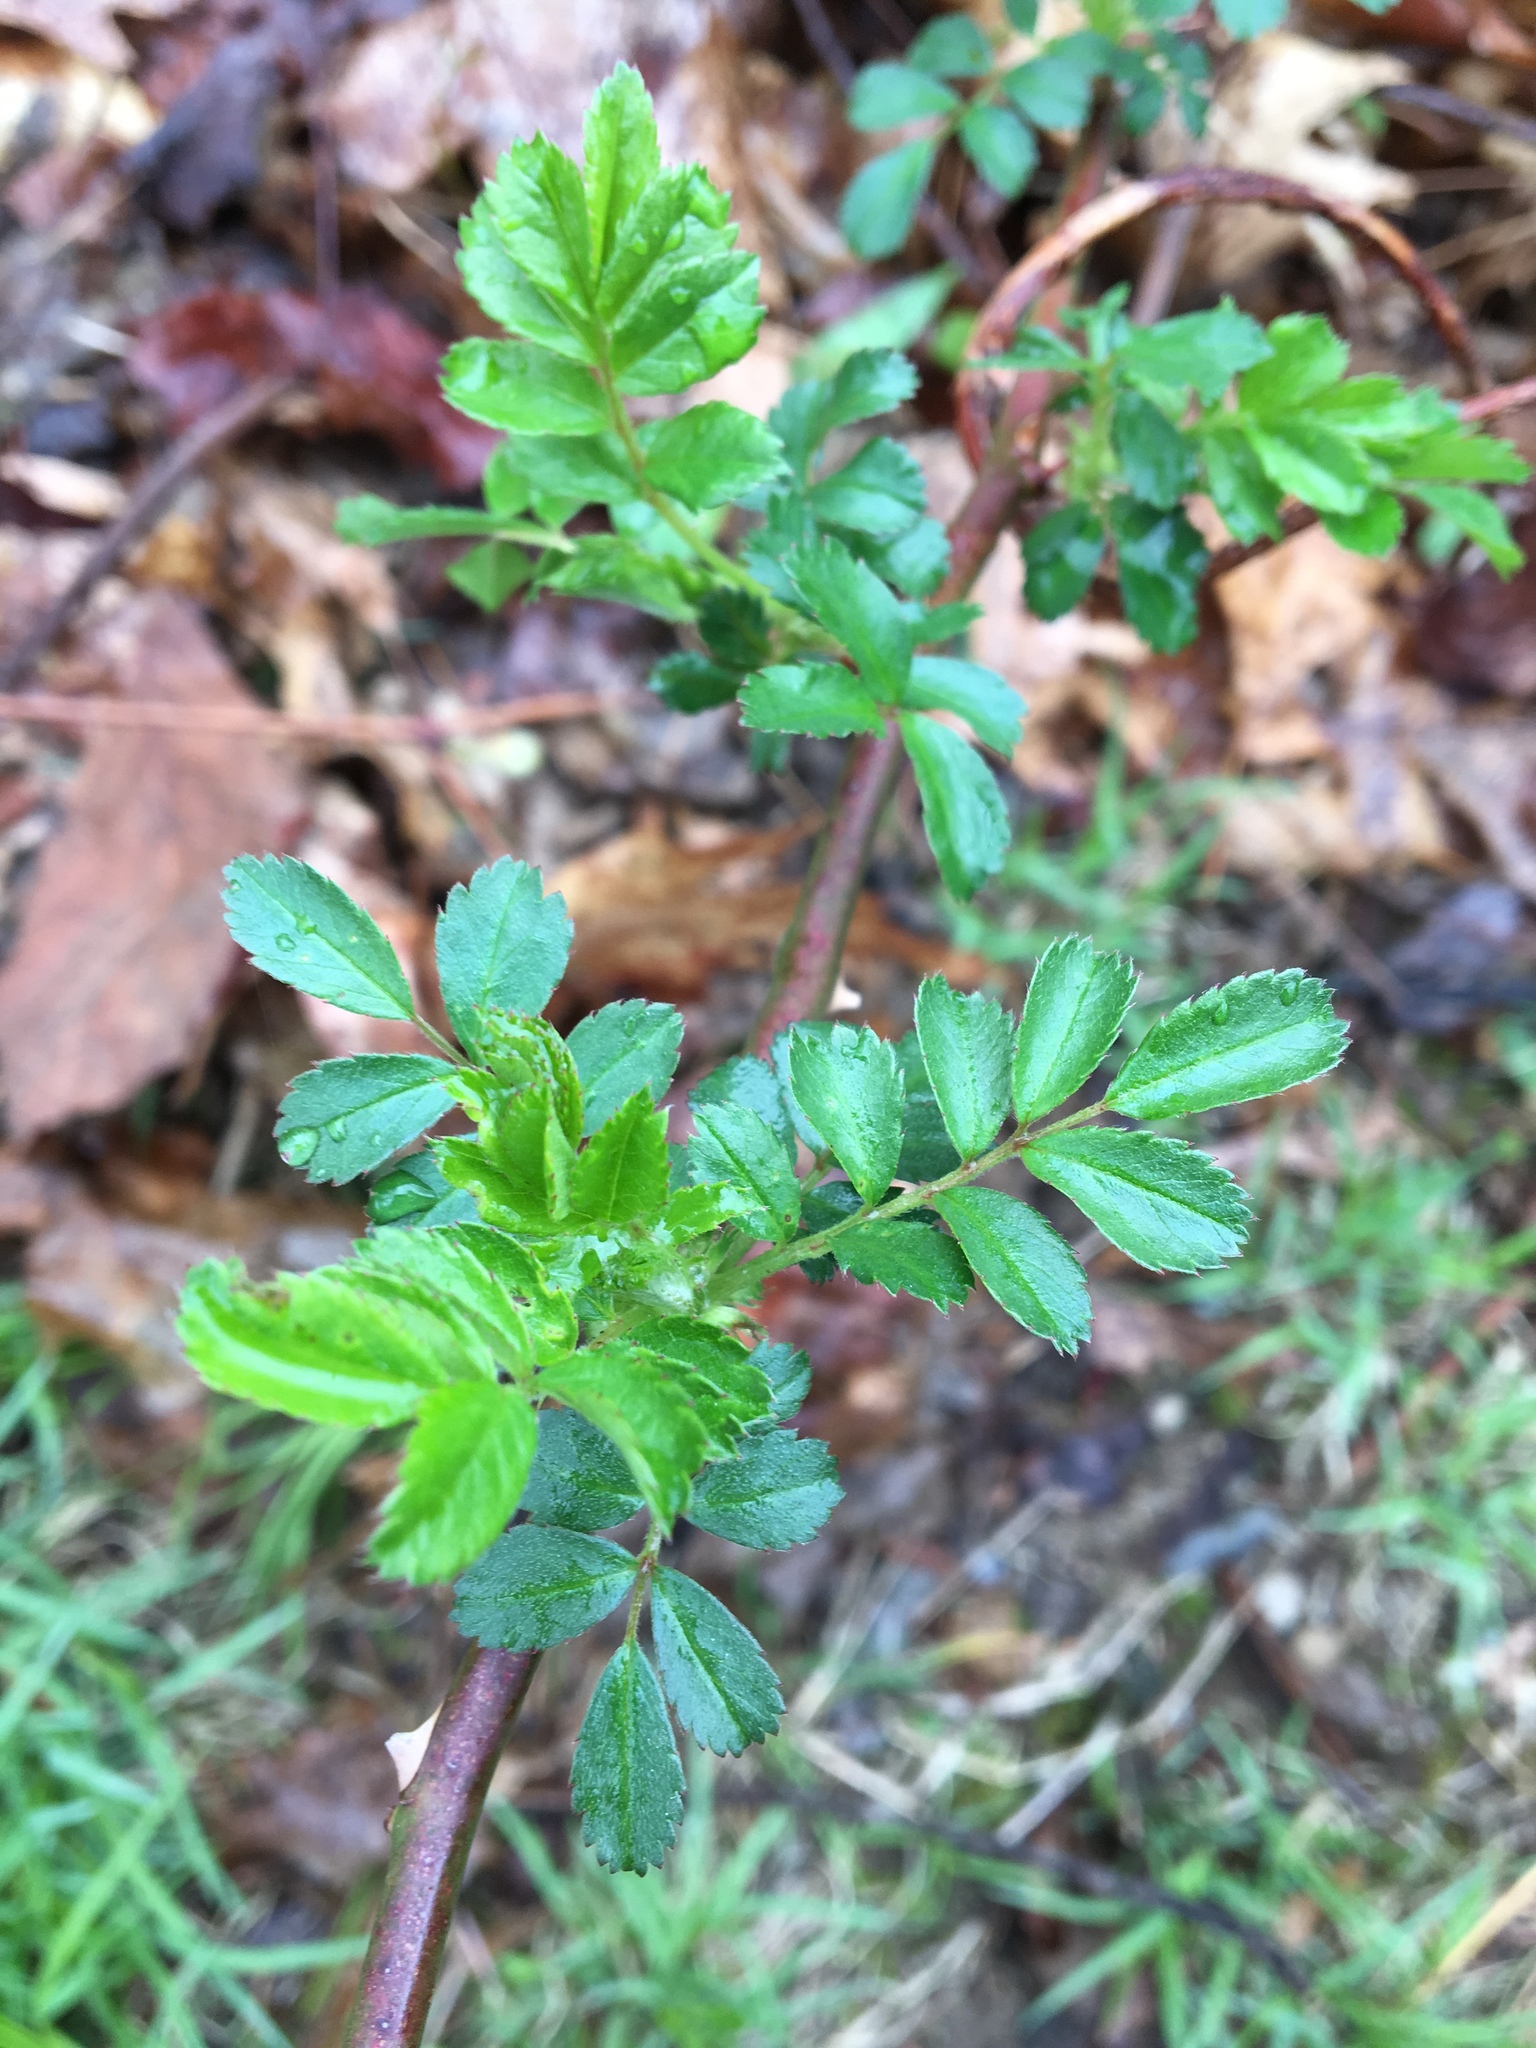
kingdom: Plantae
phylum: Tracheophyta
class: Magnoliopsida
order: Rosales
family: Rosaceae
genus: Rosa
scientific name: Rosa multiflora
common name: Multiflora rose
